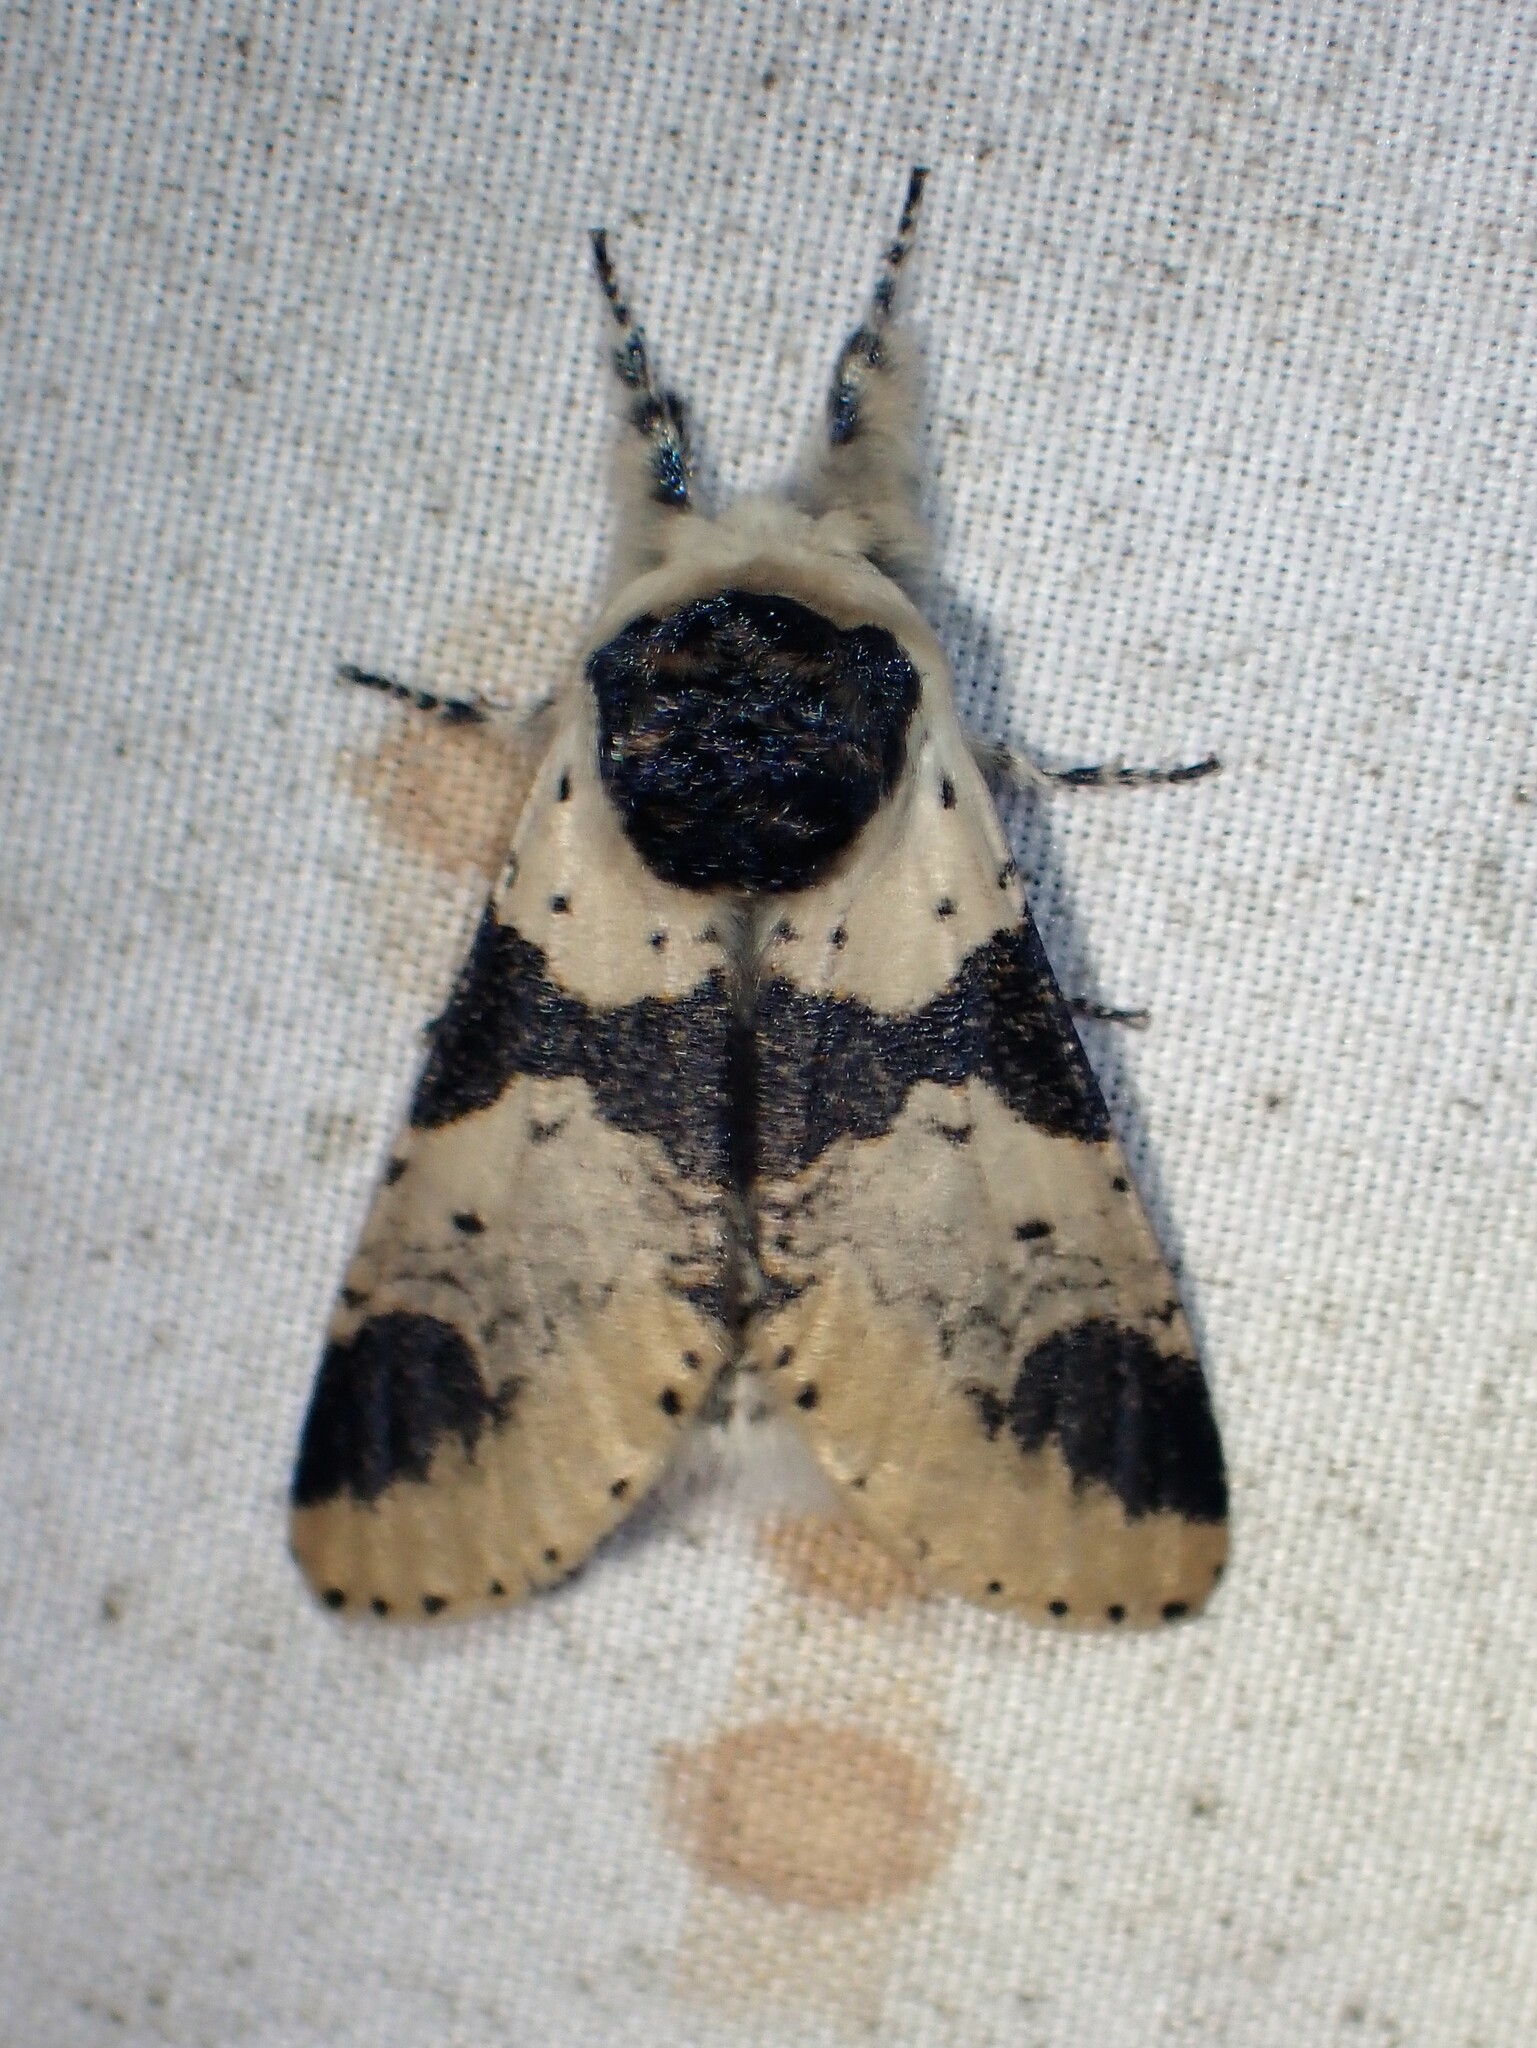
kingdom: Animalia
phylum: Arthropoda
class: Insecta
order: Lepidoptera
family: Notodontidae
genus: Furcula
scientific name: Furcula modesta
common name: Modest furcula moth
